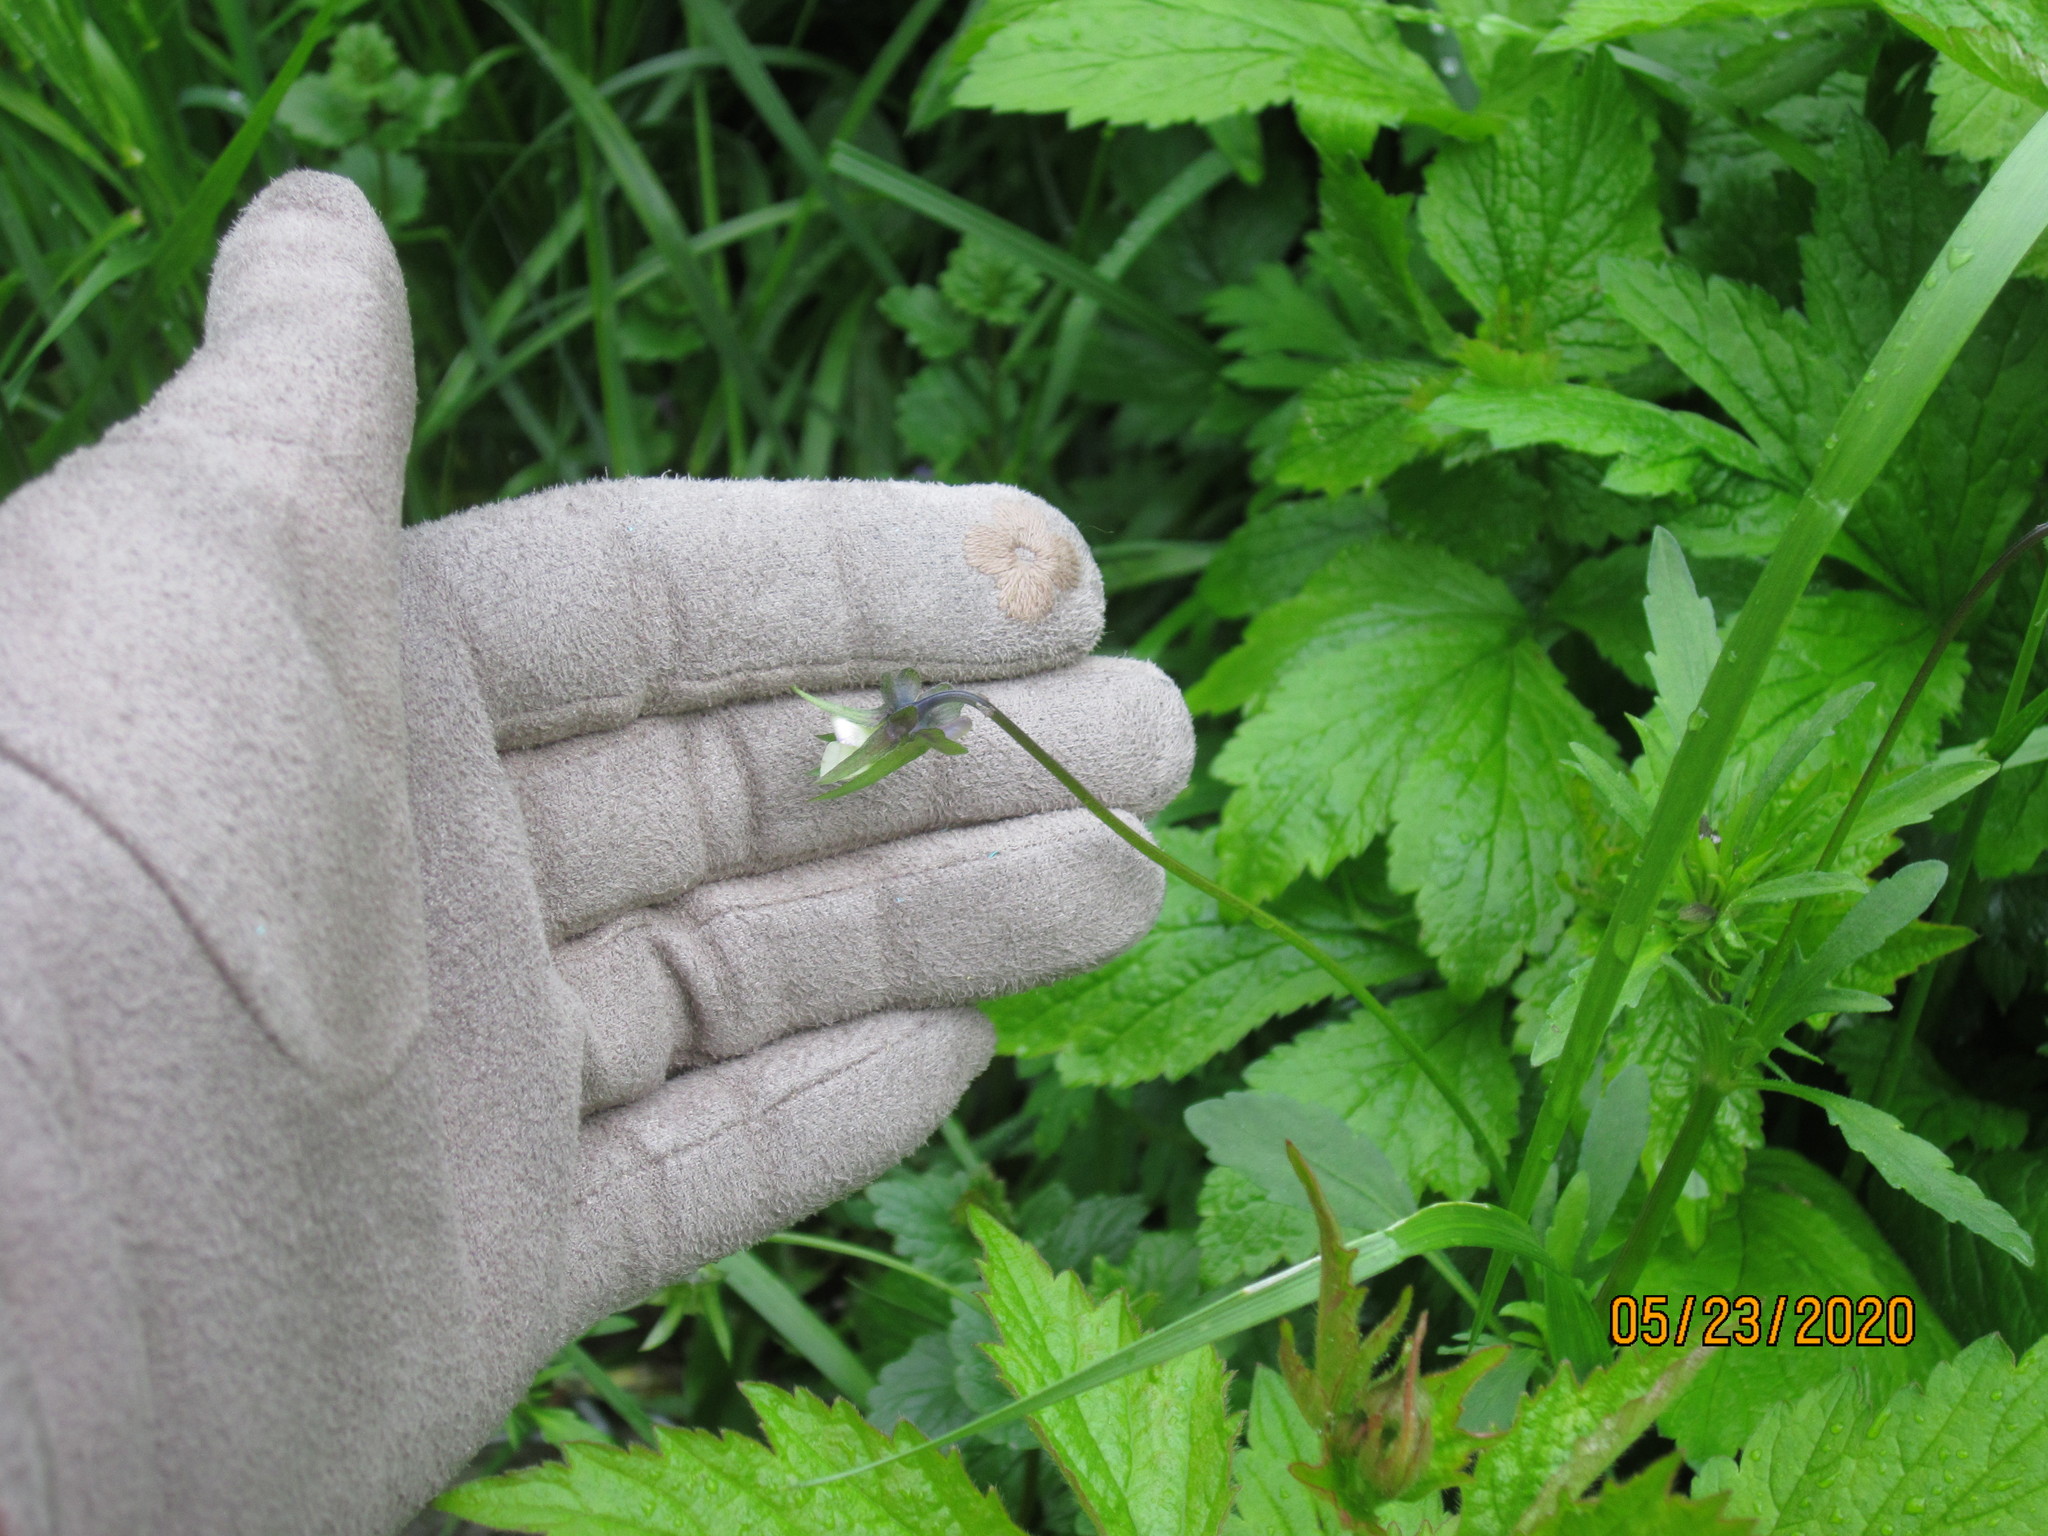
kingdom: Plantae
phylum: Tracheophyta
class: Magnoliopsida
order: Malpighiales
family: Violaceae
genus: Viola
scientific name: Viola arvensis
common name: Field pansy
